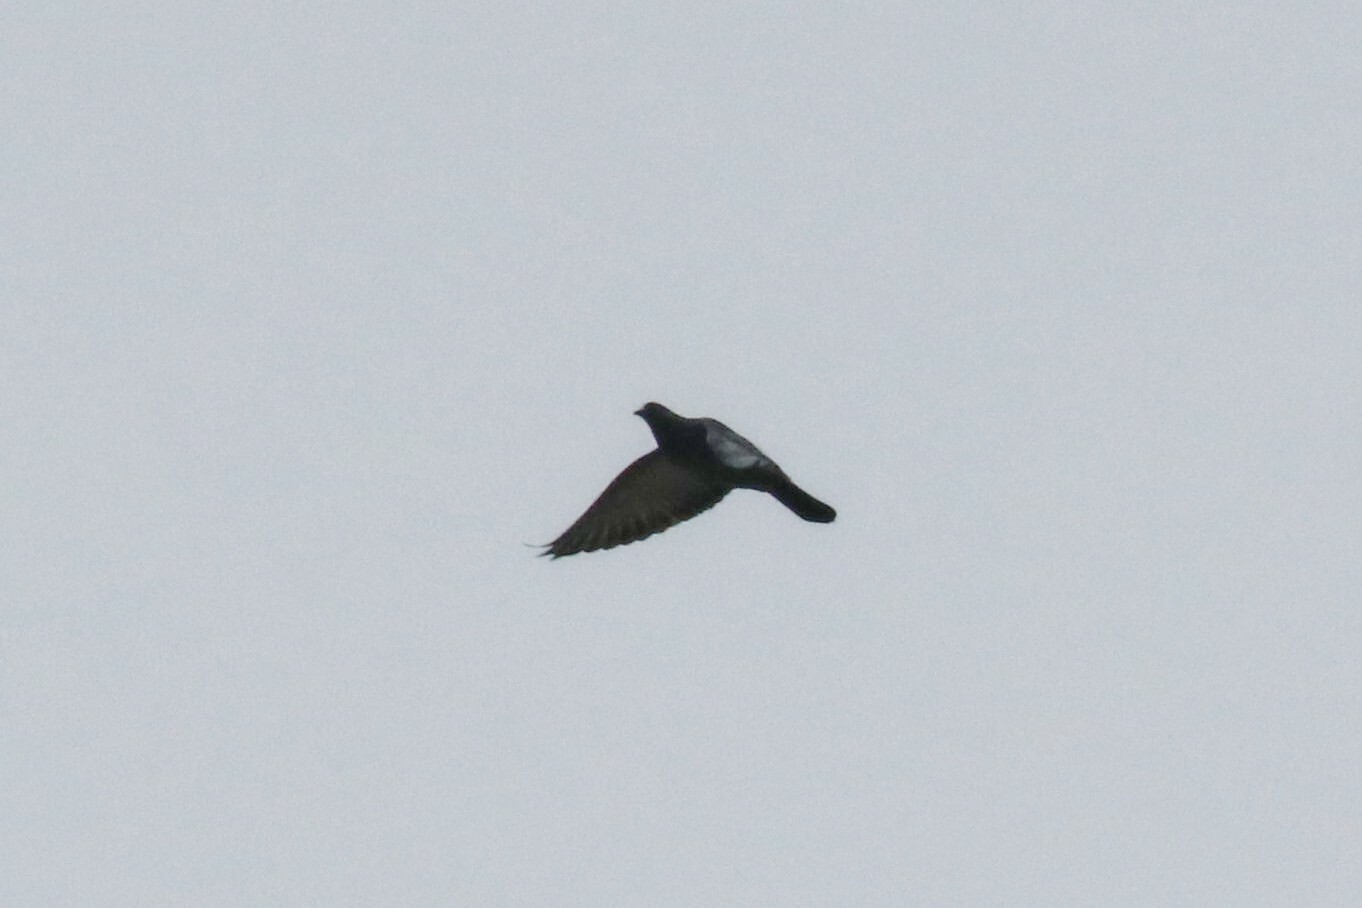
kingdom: Animalia
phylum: Chordata
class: Aves
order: Columbiformes
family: Columbidae
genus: Columba
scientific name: Columba livia
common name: Rock pigeon
